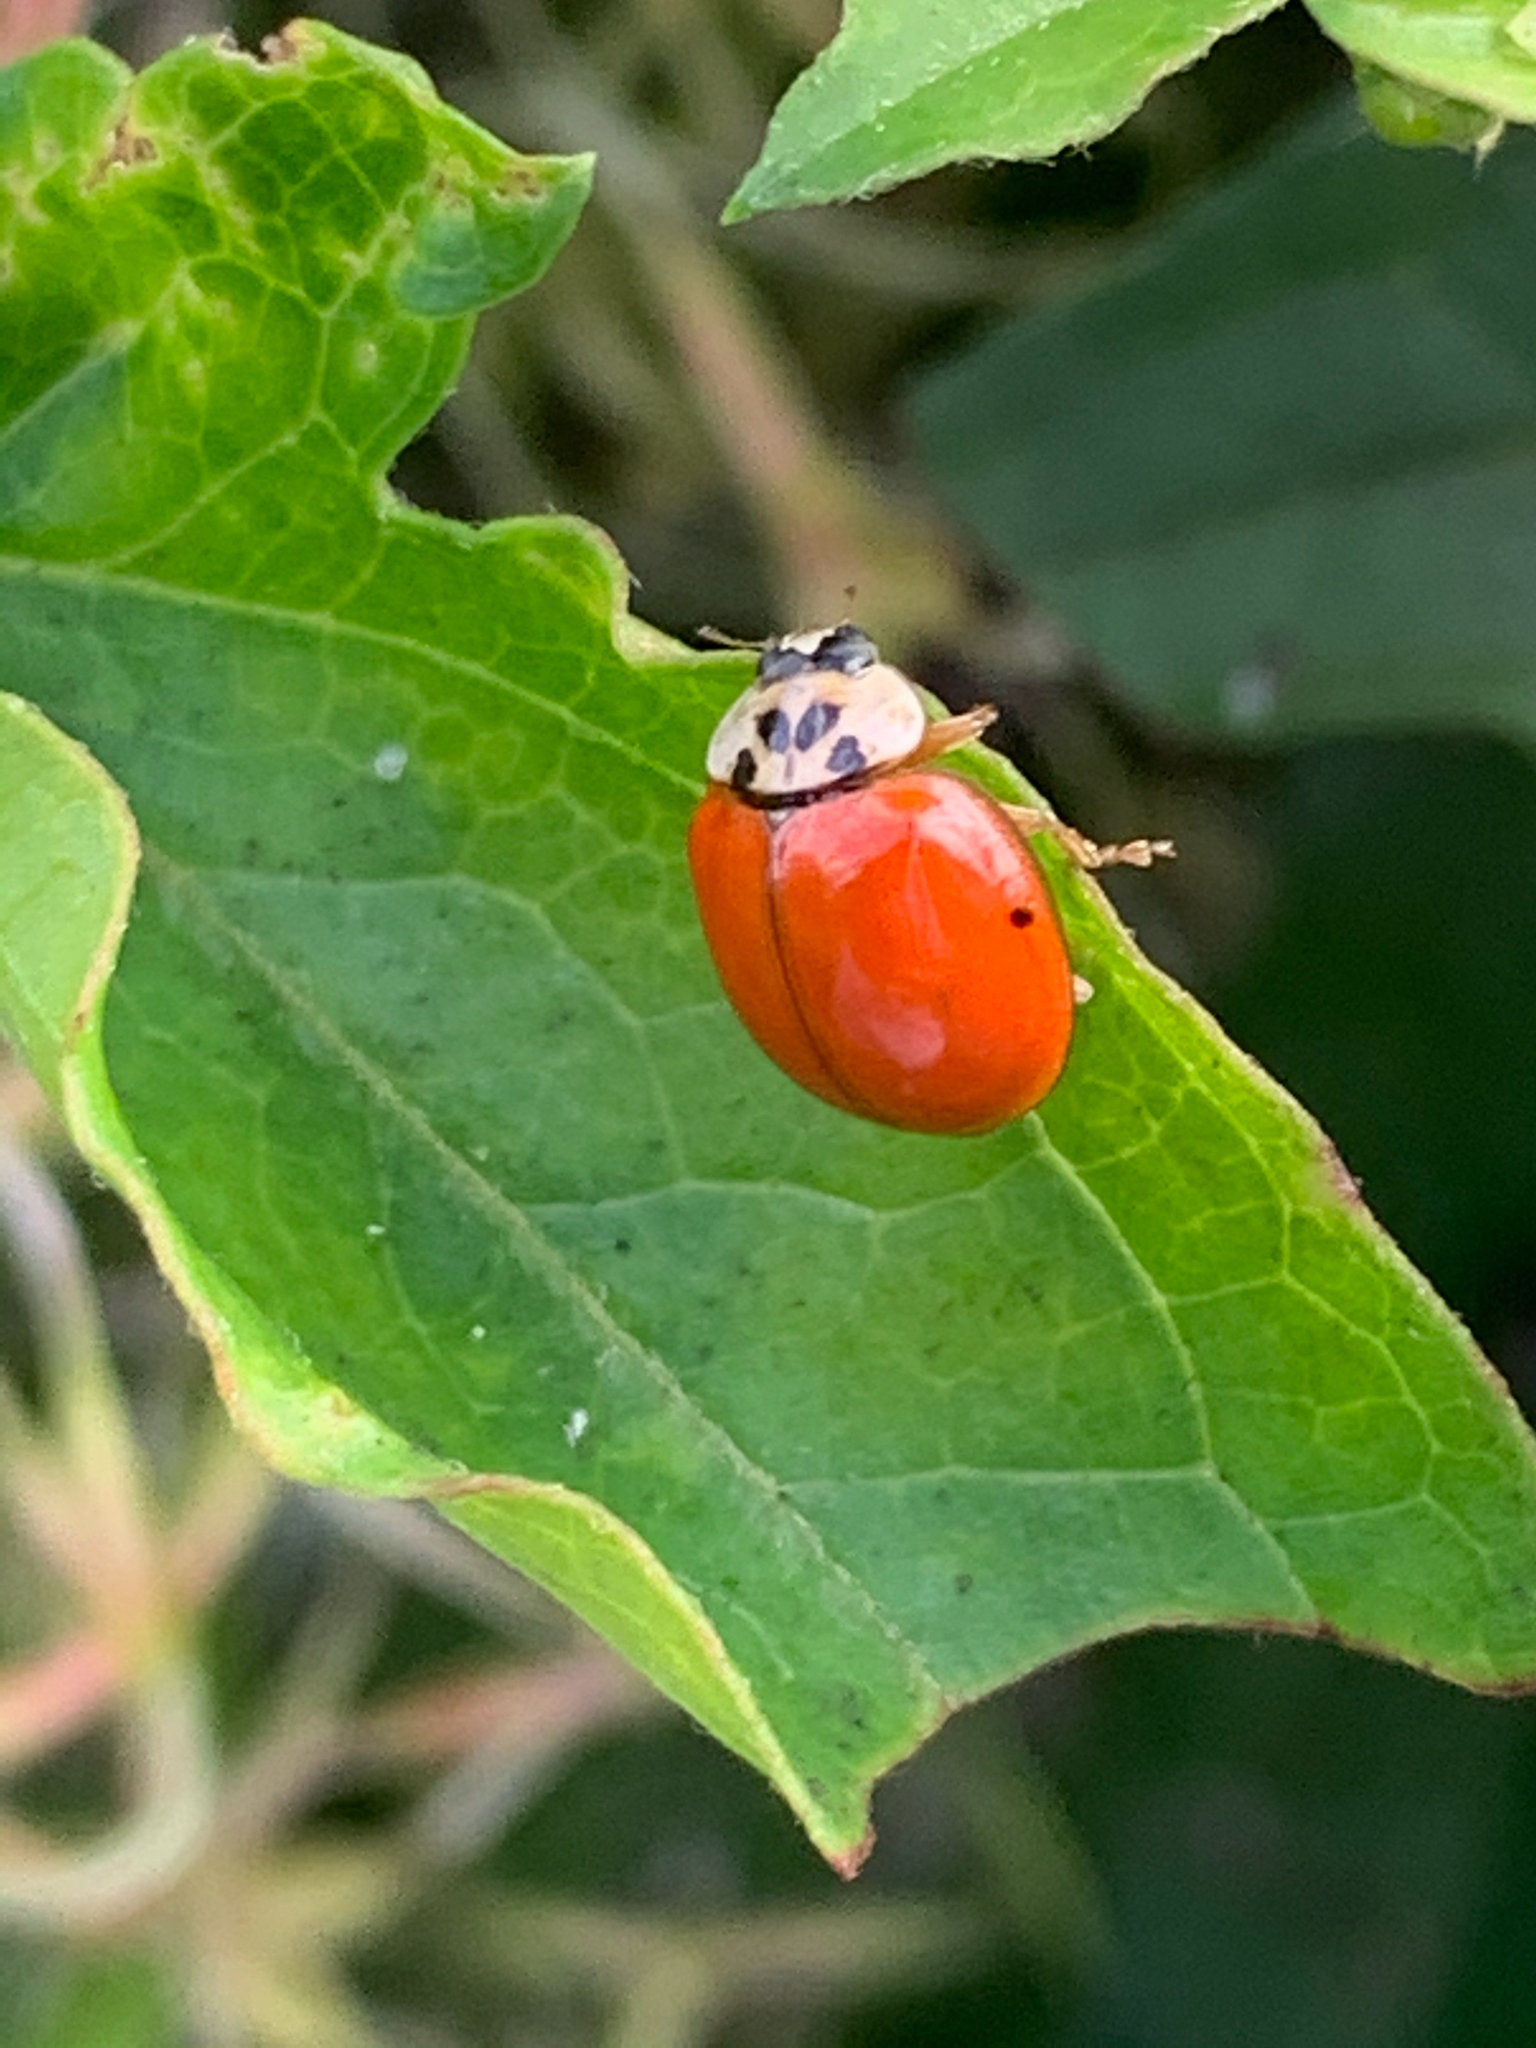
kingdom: Animalia
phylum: Arthropoda
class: Insecta
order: Coleoptera
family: Coccinellidae
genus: Harmonia
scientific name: Harmonia axyridis
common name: Harlequin ladybird
